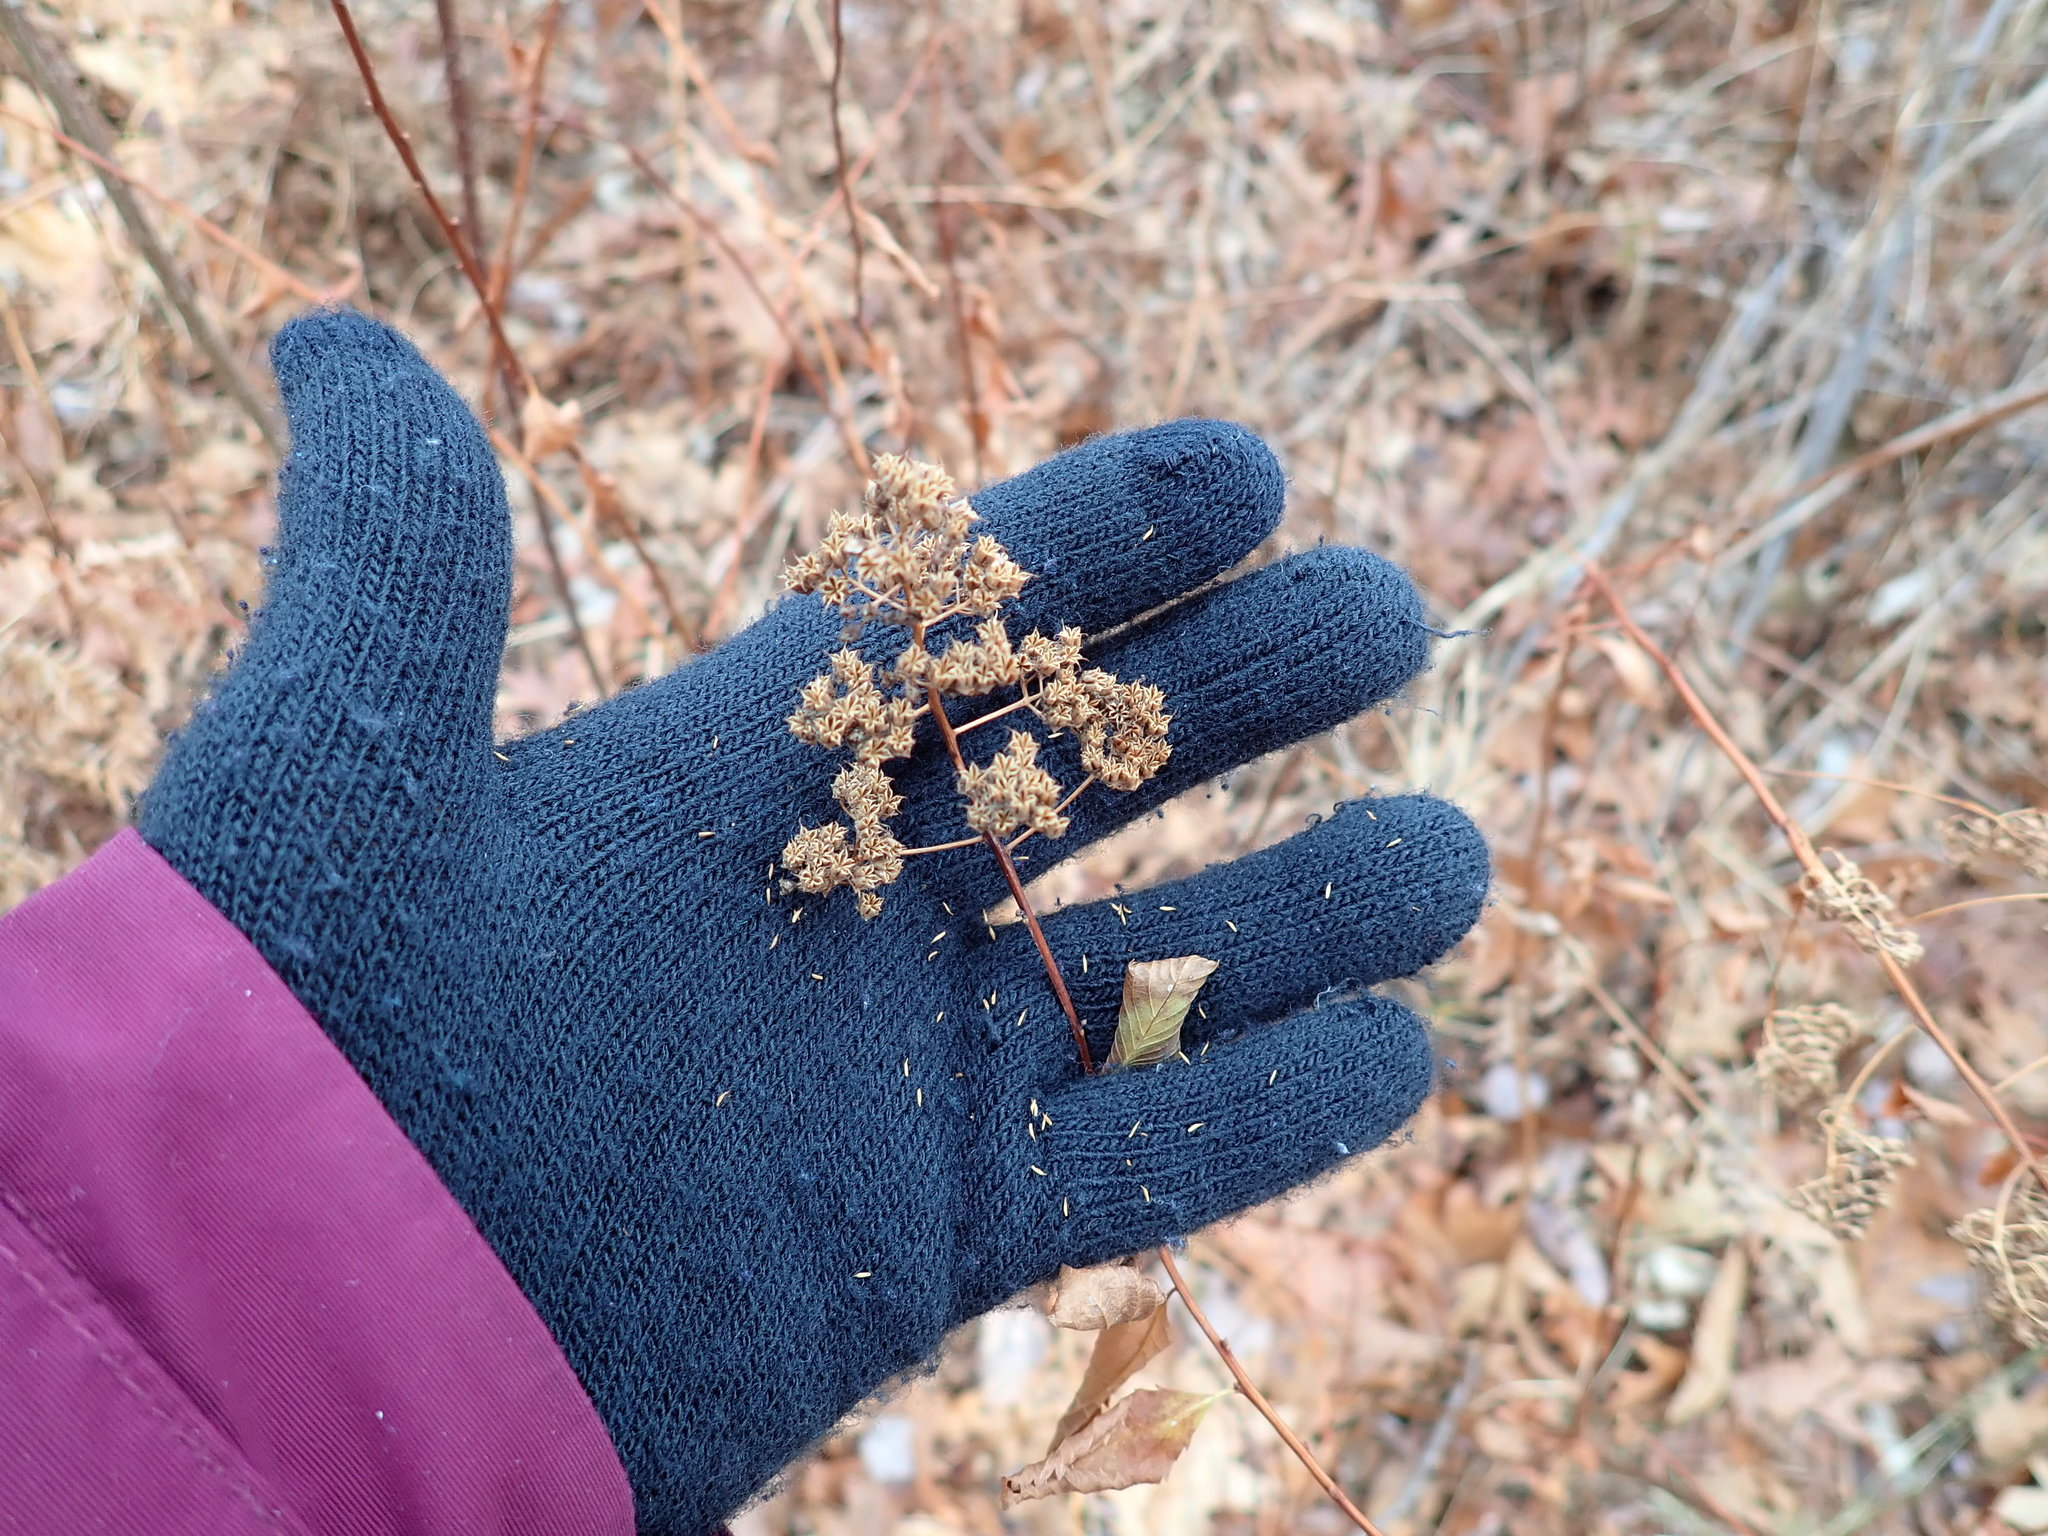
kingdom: Plantae
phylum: Tracheophyta
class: Magnoliopsida
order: Rosales
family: Rosaceae
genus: Spiraea
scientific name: Spiraea alba
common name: Pale bridewort
